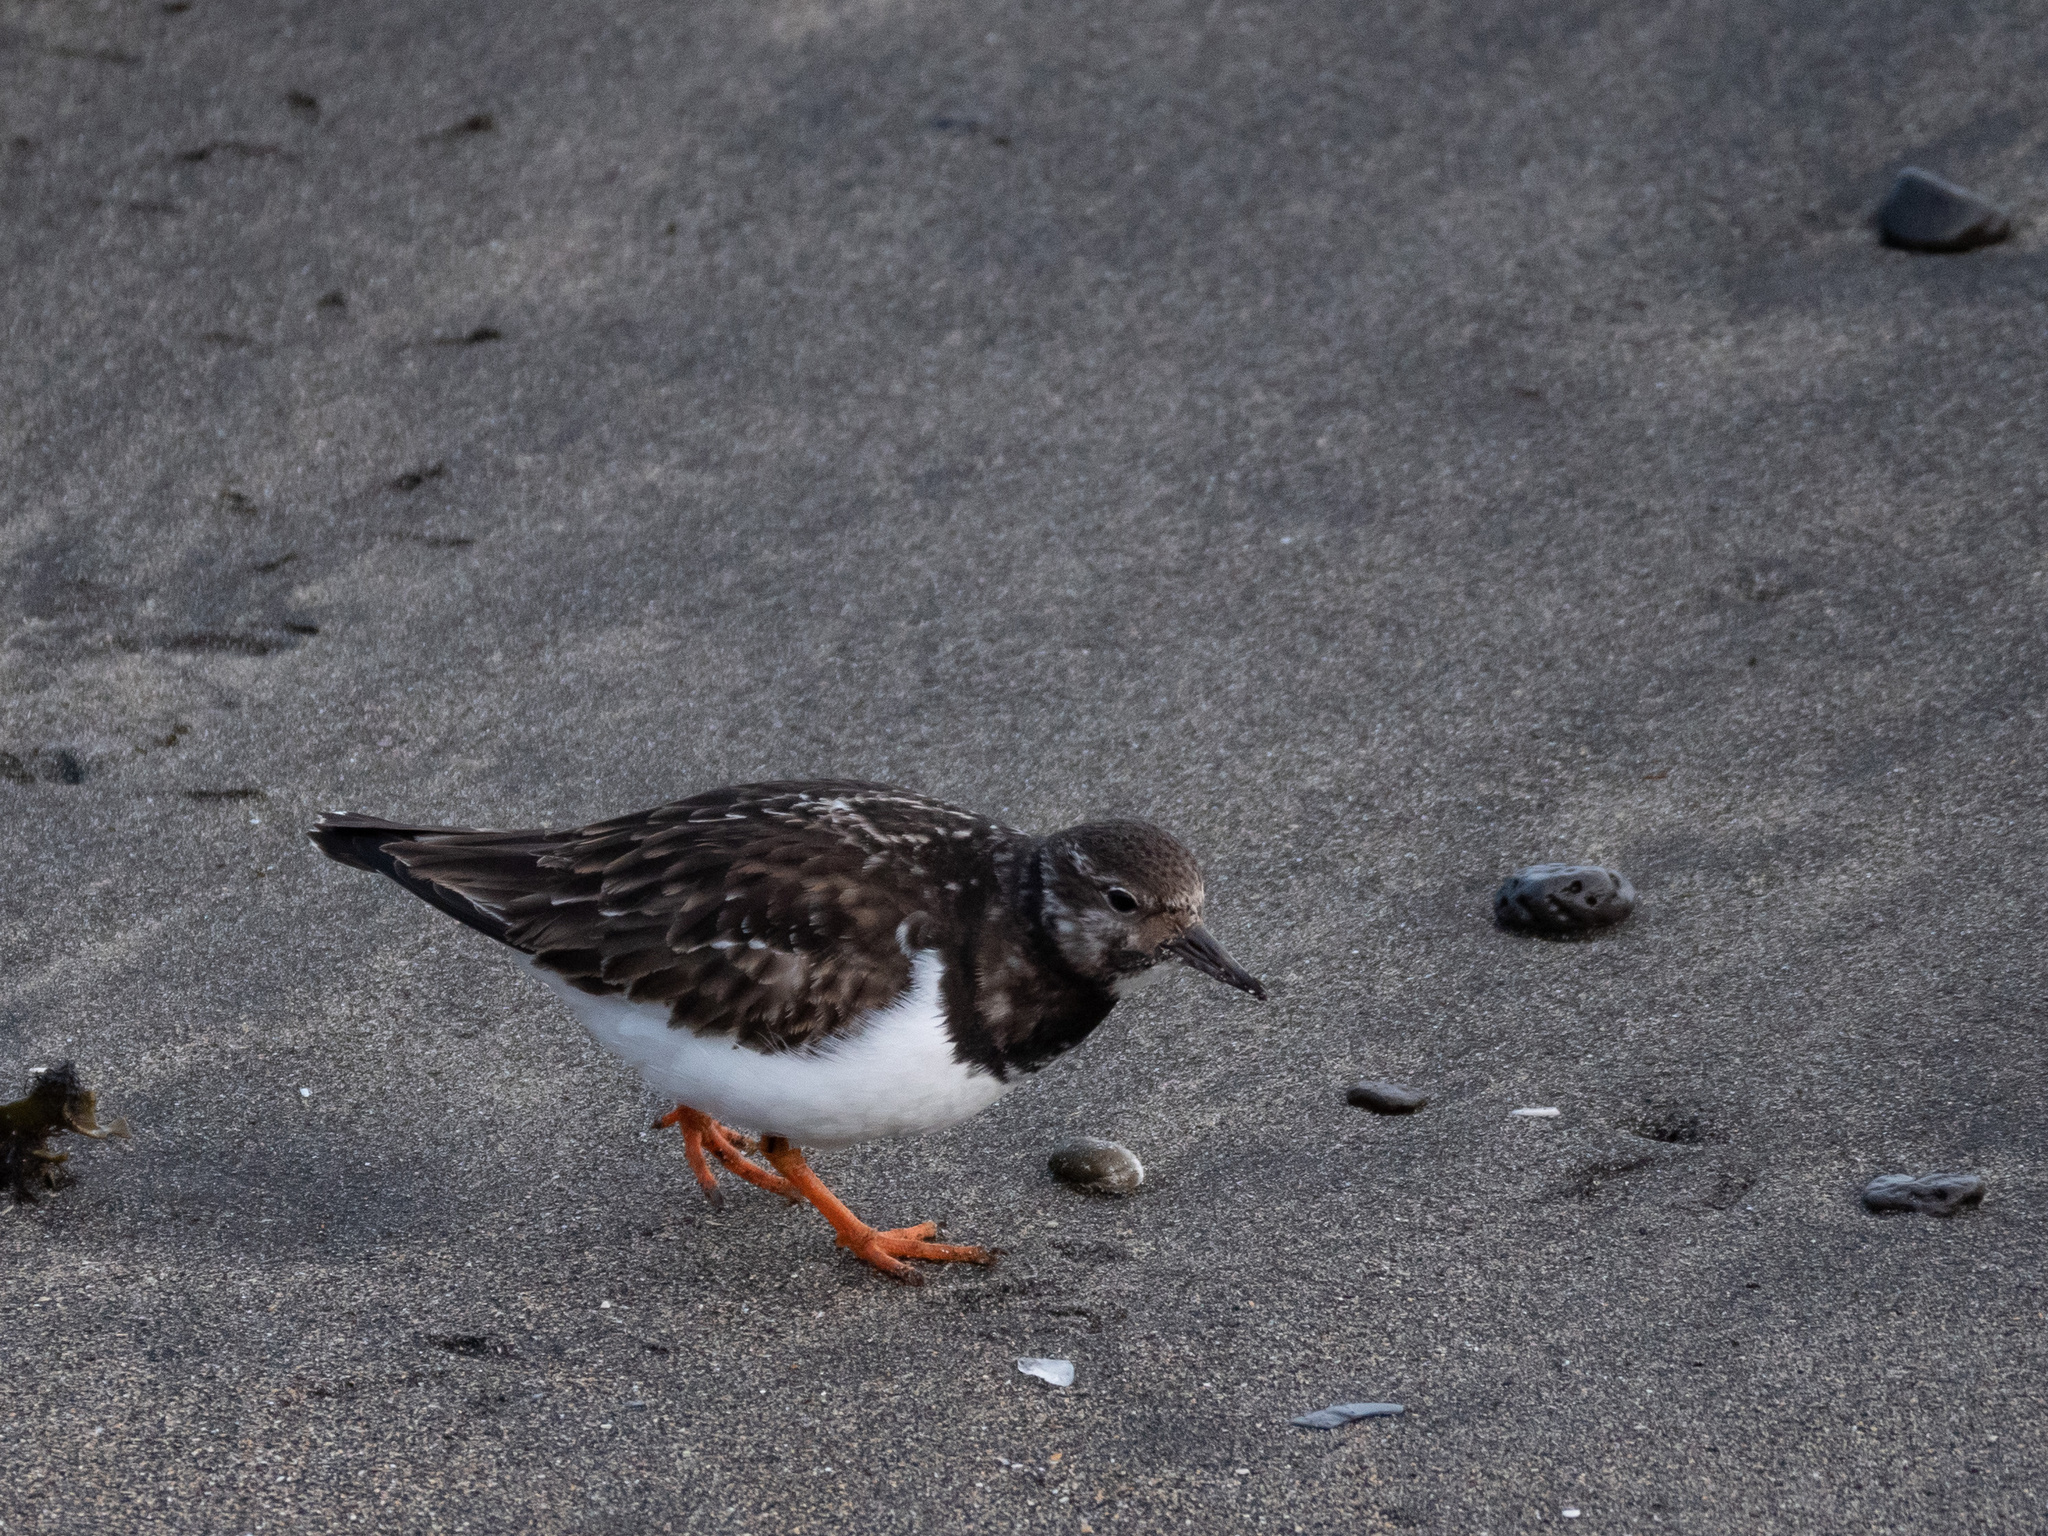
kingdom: Animalia
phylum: Chordata
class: Aves
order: Charadriiformes
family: Scolopacidae
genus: Arenaria
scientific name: Arenaria interpres
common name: Ruddy turnstone
